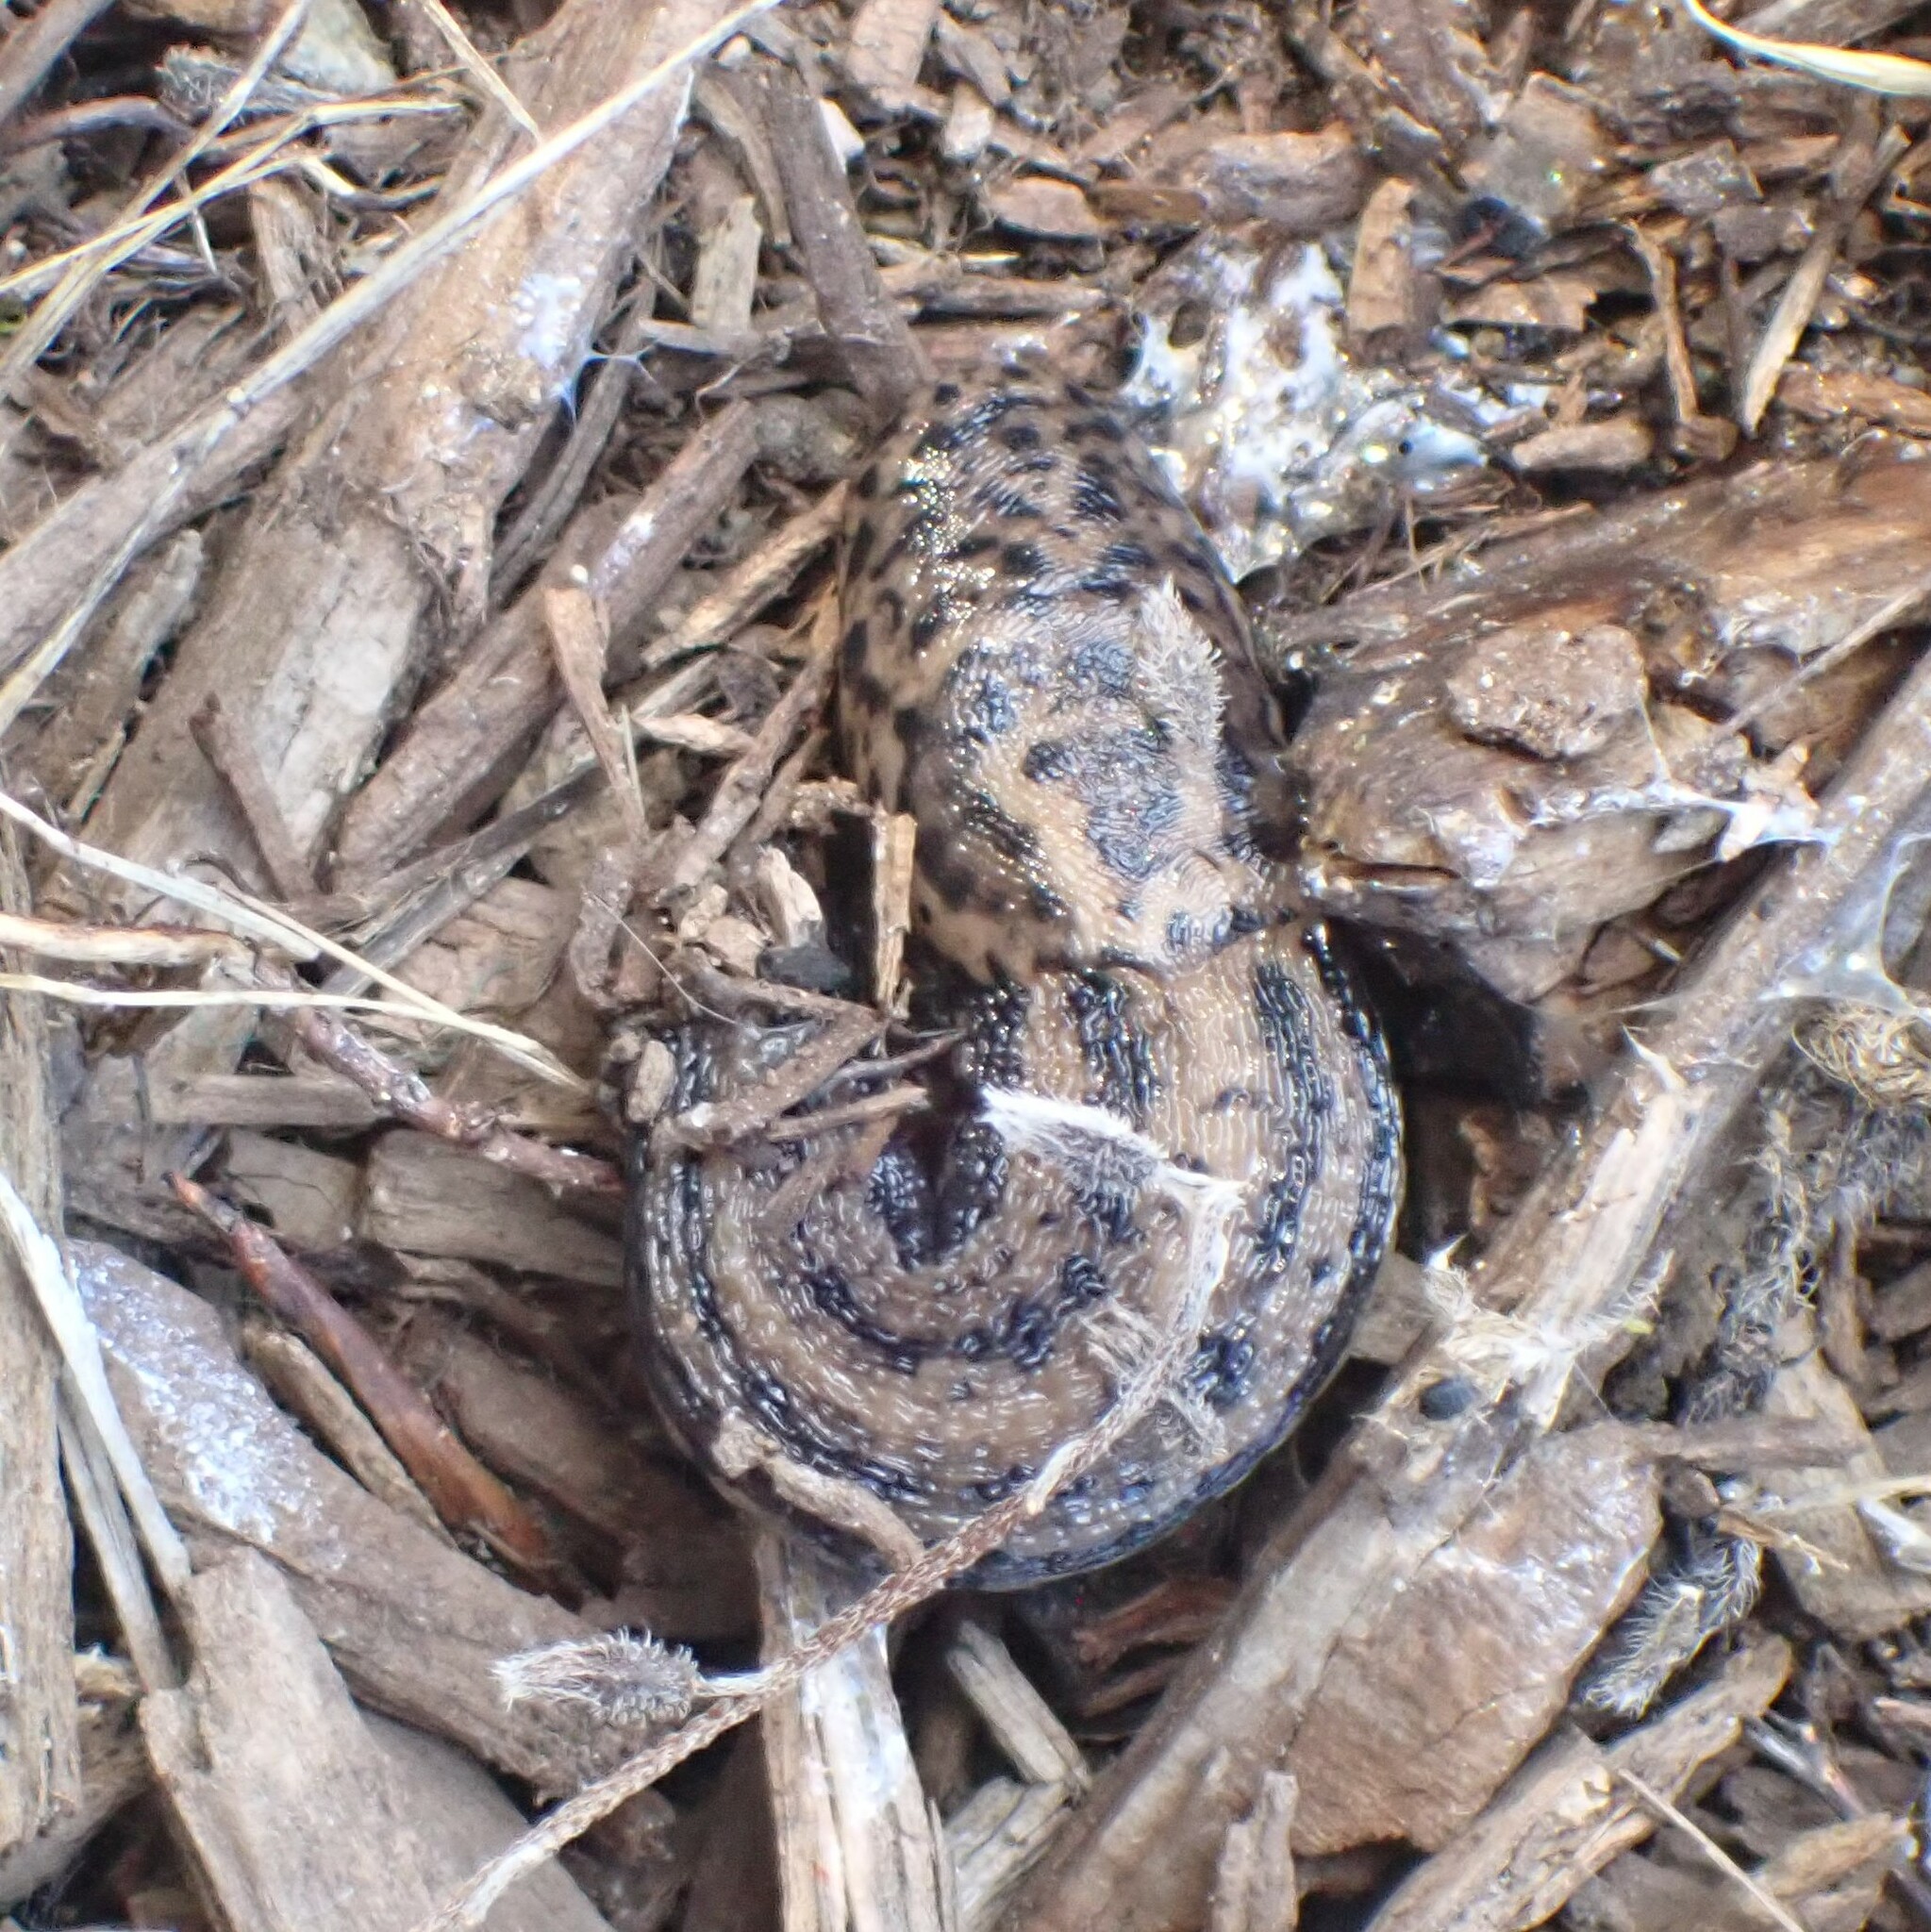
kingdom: Animalia
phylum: Mollusca
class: Gastropoda
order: Stylommatophora
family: Limacidae
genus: Limax
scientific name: Limax maximus
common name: Great grey slug
